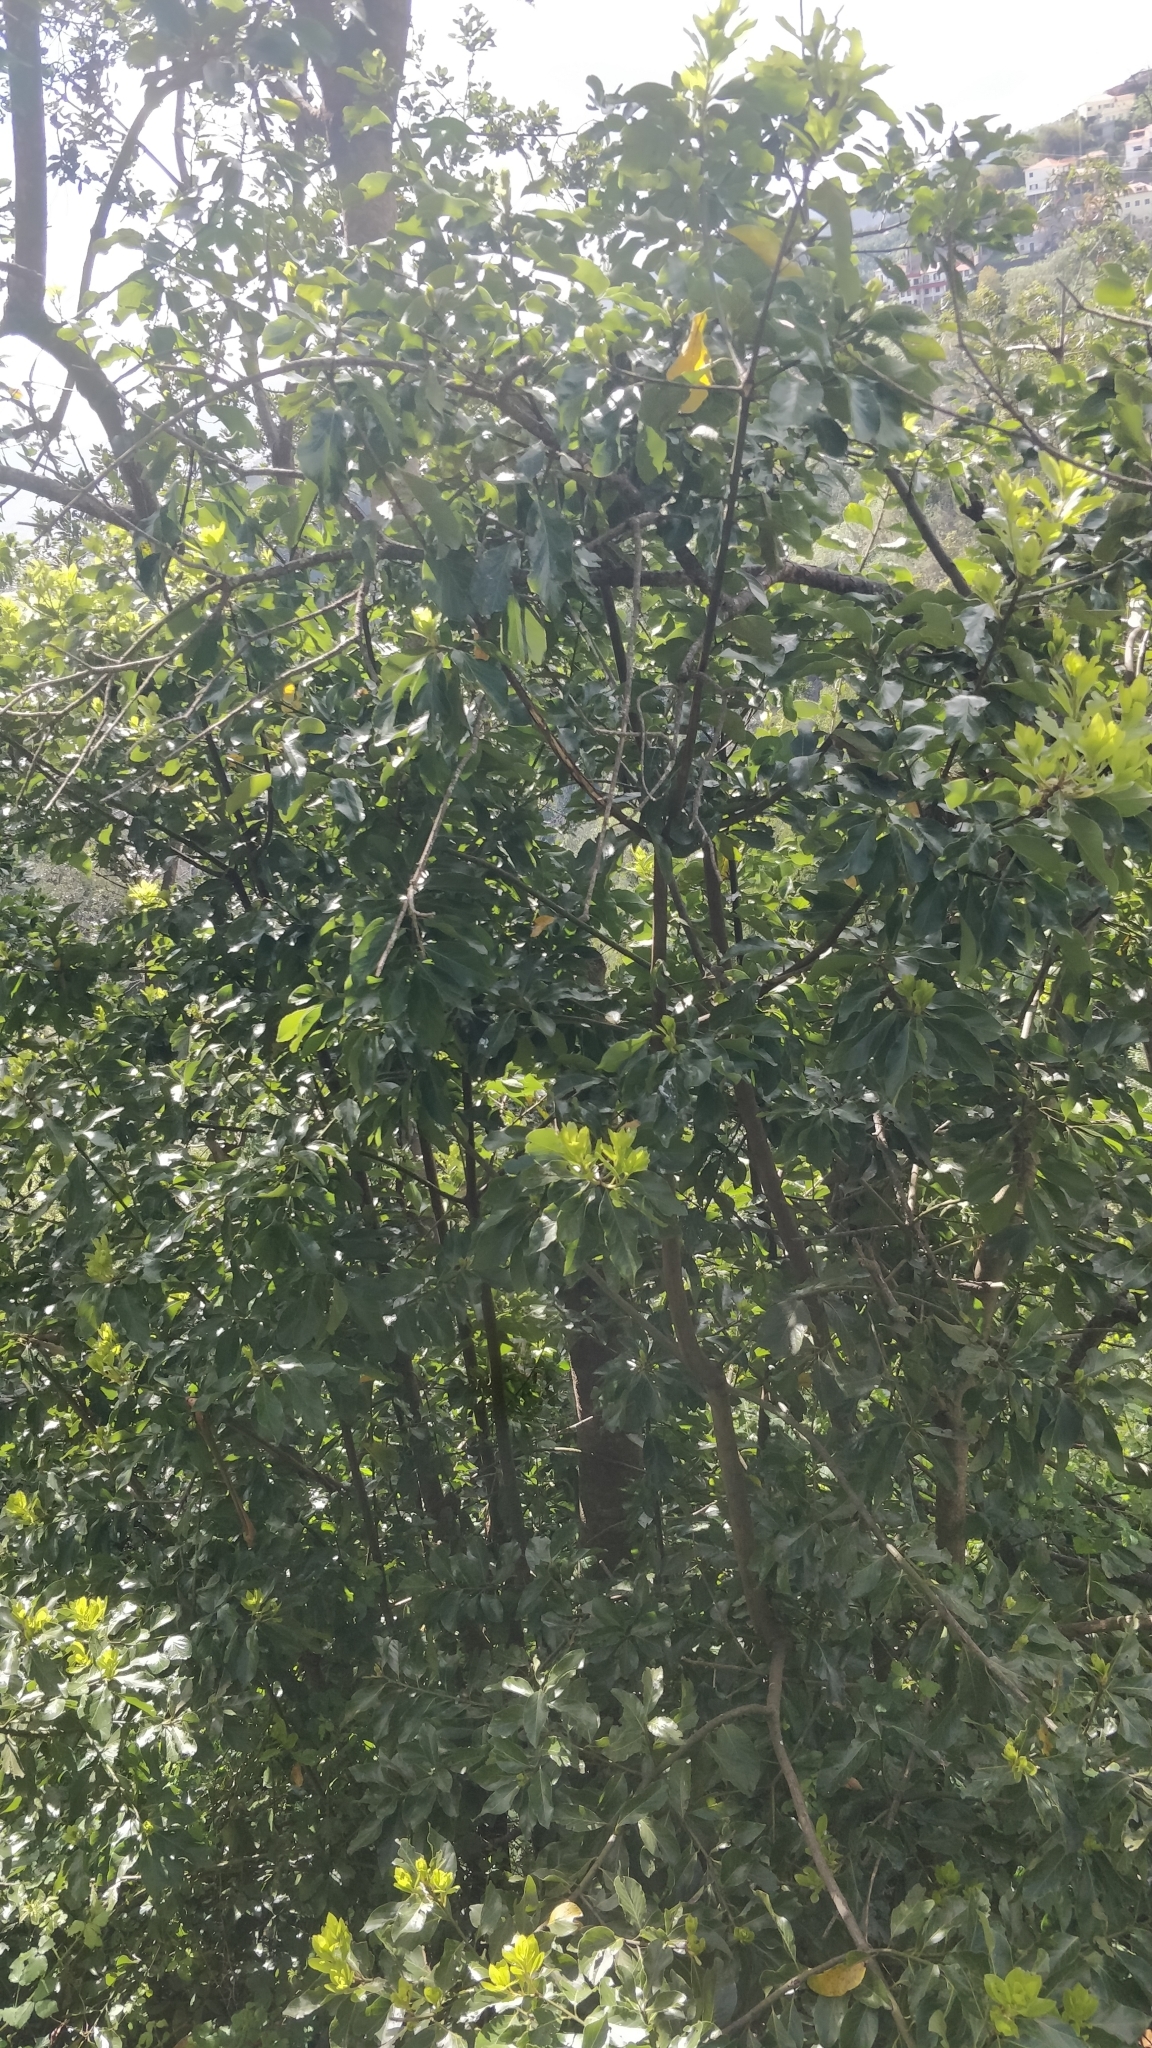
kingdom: Plantae
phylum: Tracheophyta
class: Magnoliopsida
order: Laurales
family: Lauraceae
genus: Laurus
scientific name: Laurus novocanariensis
